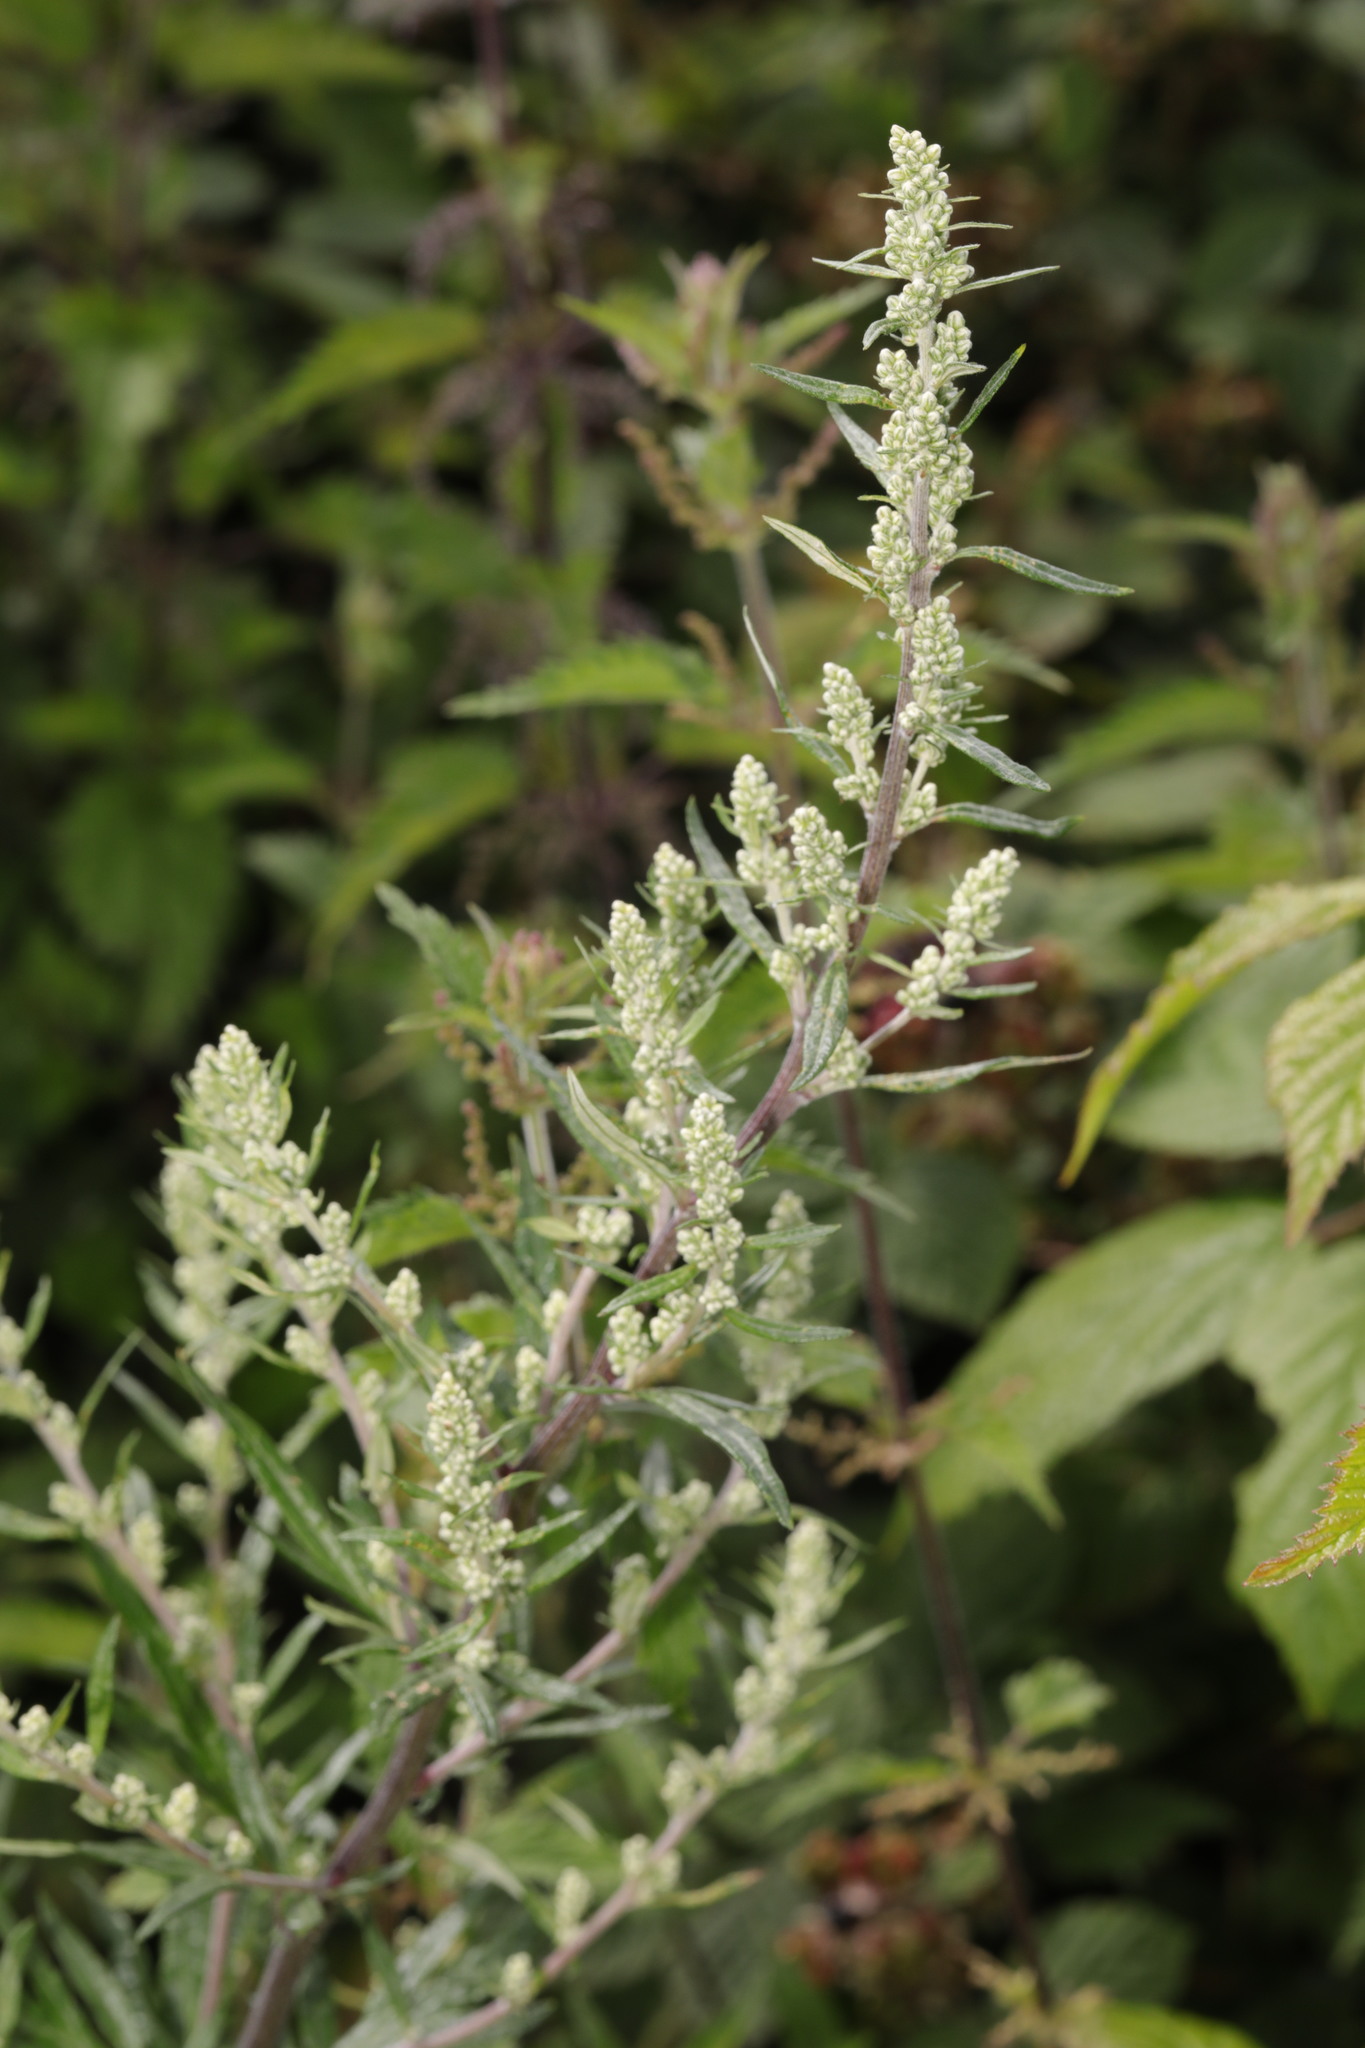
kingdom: Plantae
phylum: Tracheophyta
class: Magnoliopsida
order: Asterales
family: Asteraceae
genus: Artemisia
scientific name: Artemisia vulgaris
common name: Mugwort
